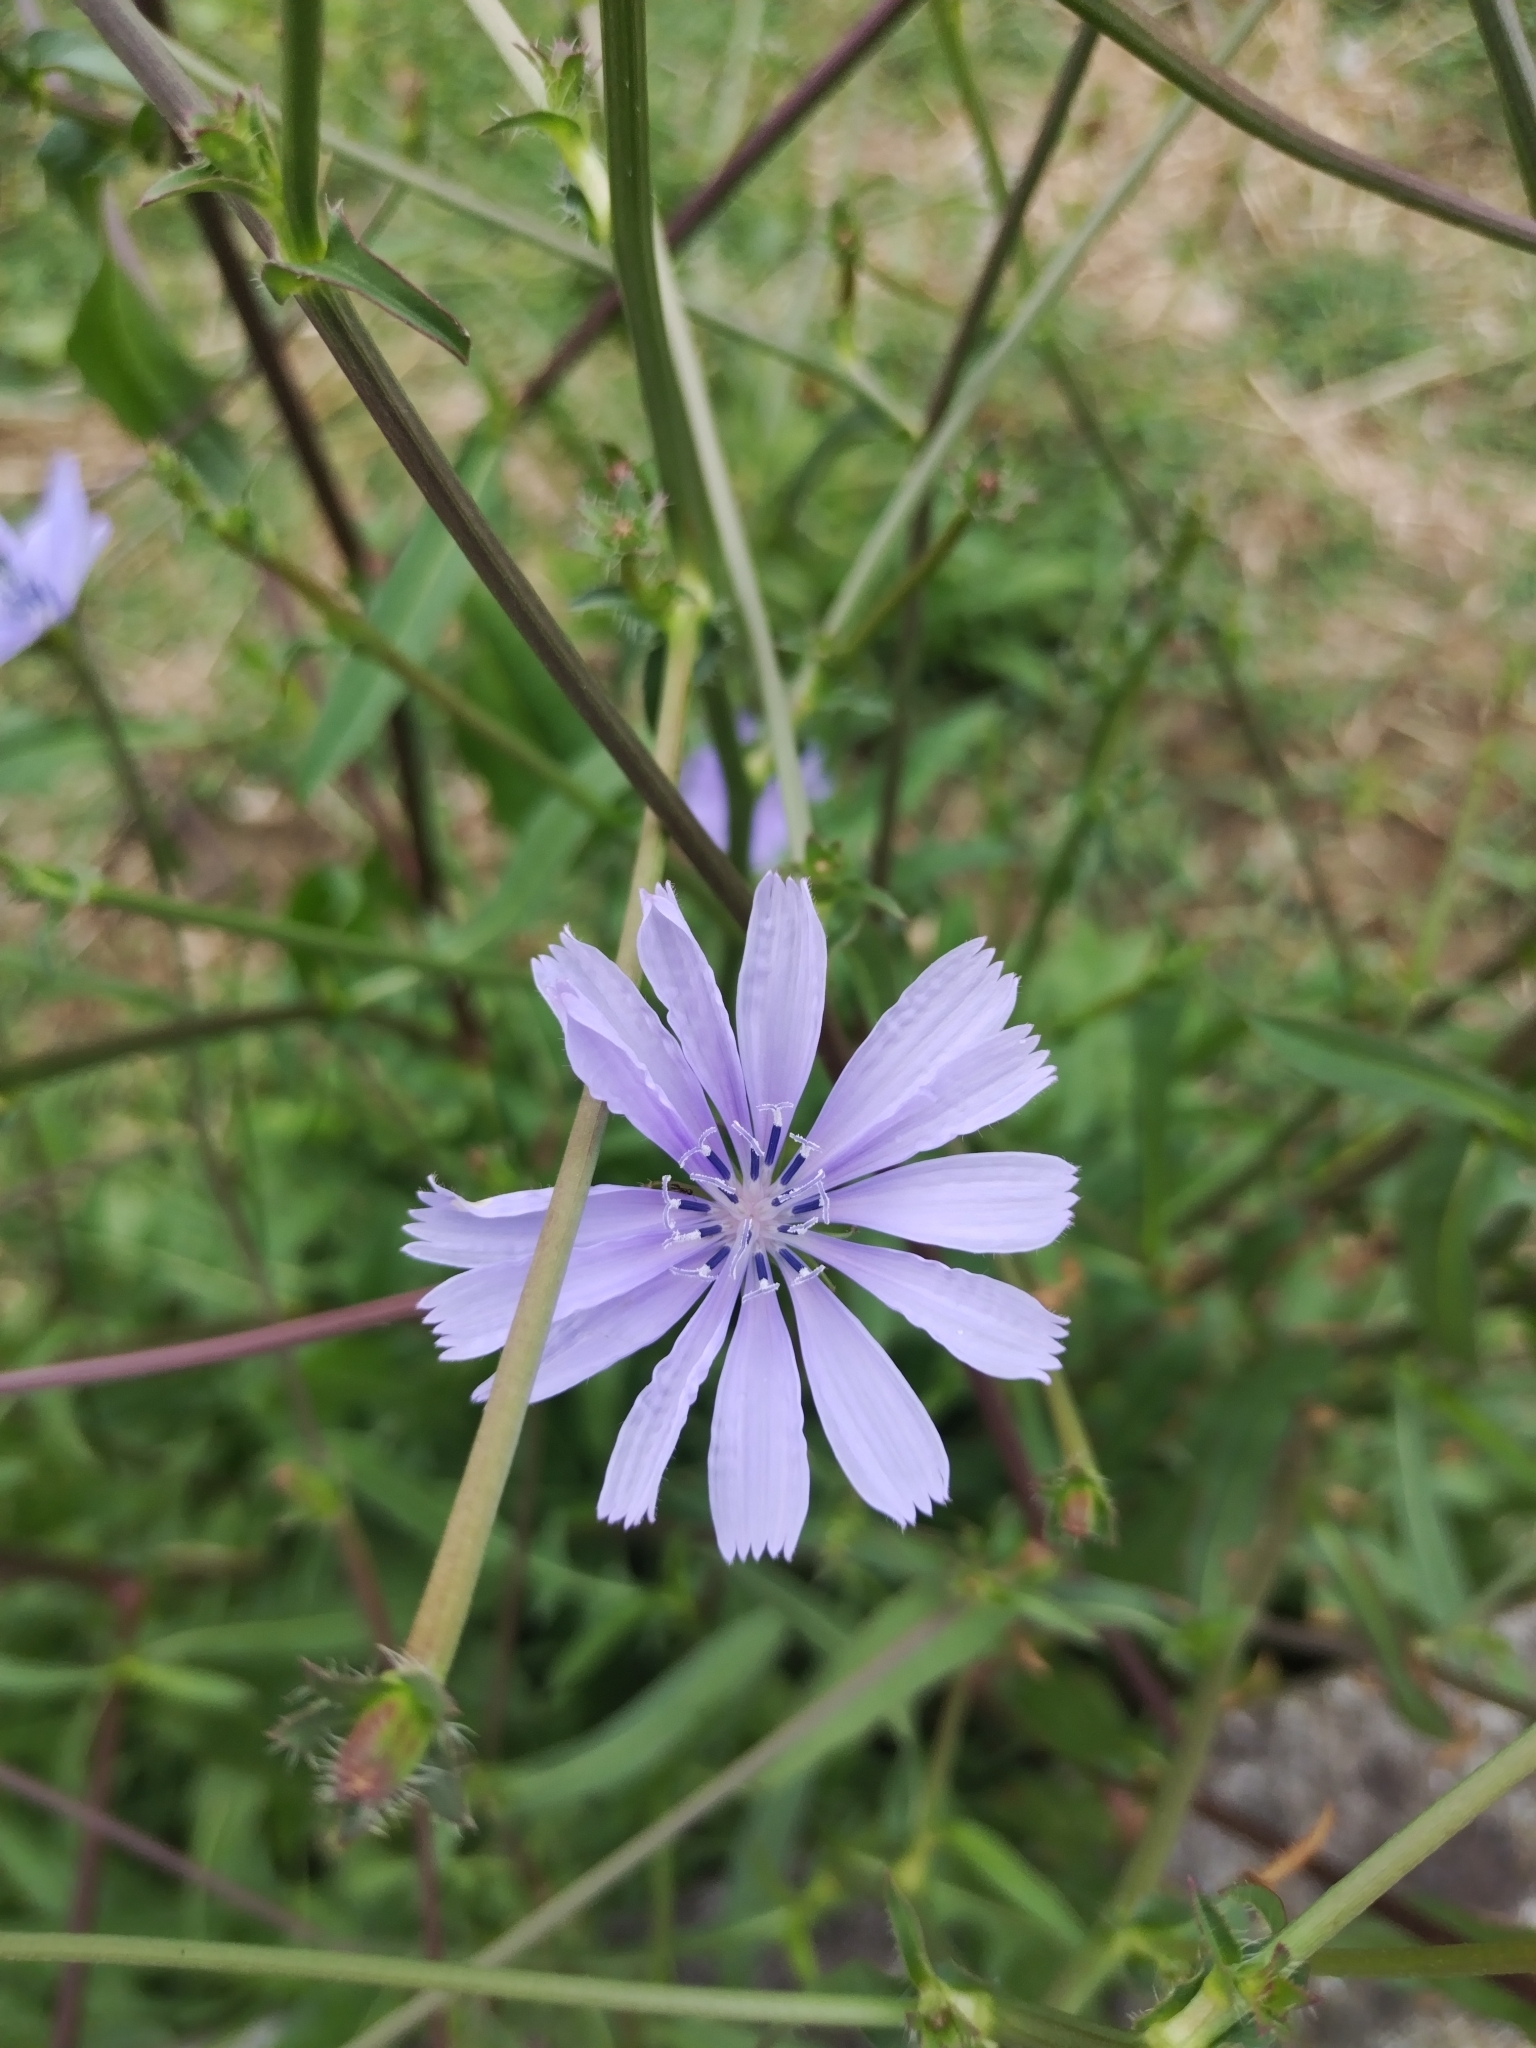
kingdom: Plantae
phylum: Tracheophyta
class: Magnoliopsida
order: Asterales
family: Asteraceae
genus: Cichorium
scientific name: Cichorium intybus
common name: Chicory
